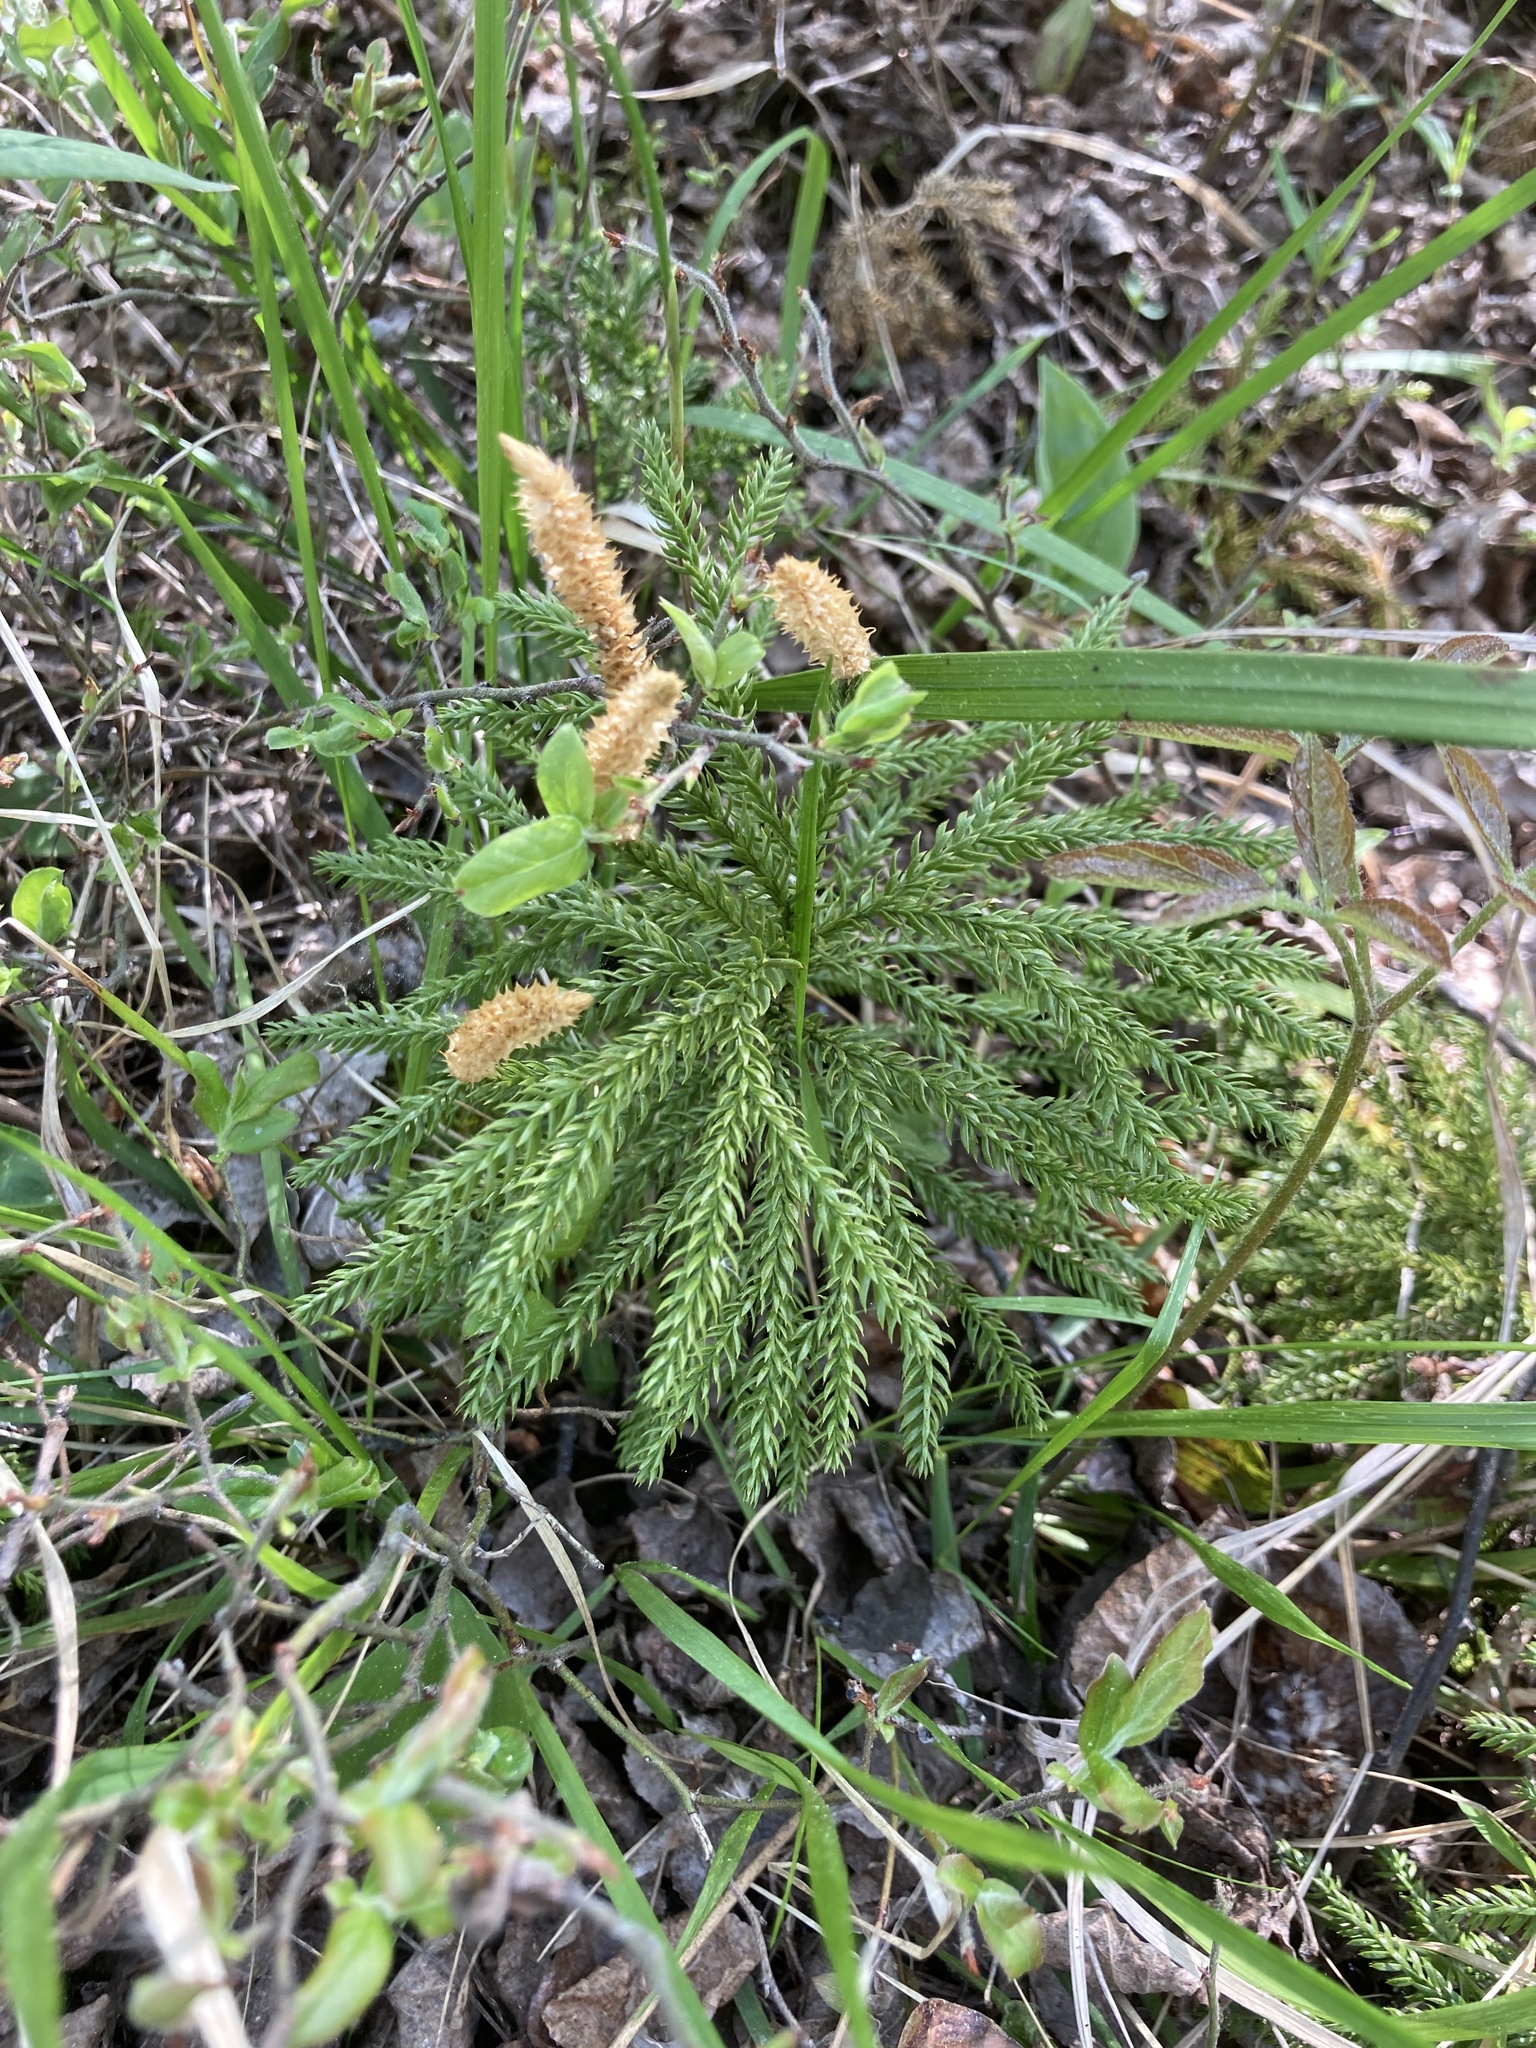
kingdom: Plantae
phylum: Tracheophyta
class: Lycopodiopsida
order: Lycopodiales
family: Lycopodiaceae
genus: Dendrolycopodium
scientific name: Dendrolycopodium dendroideum
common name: Northern tree-clubmoss
